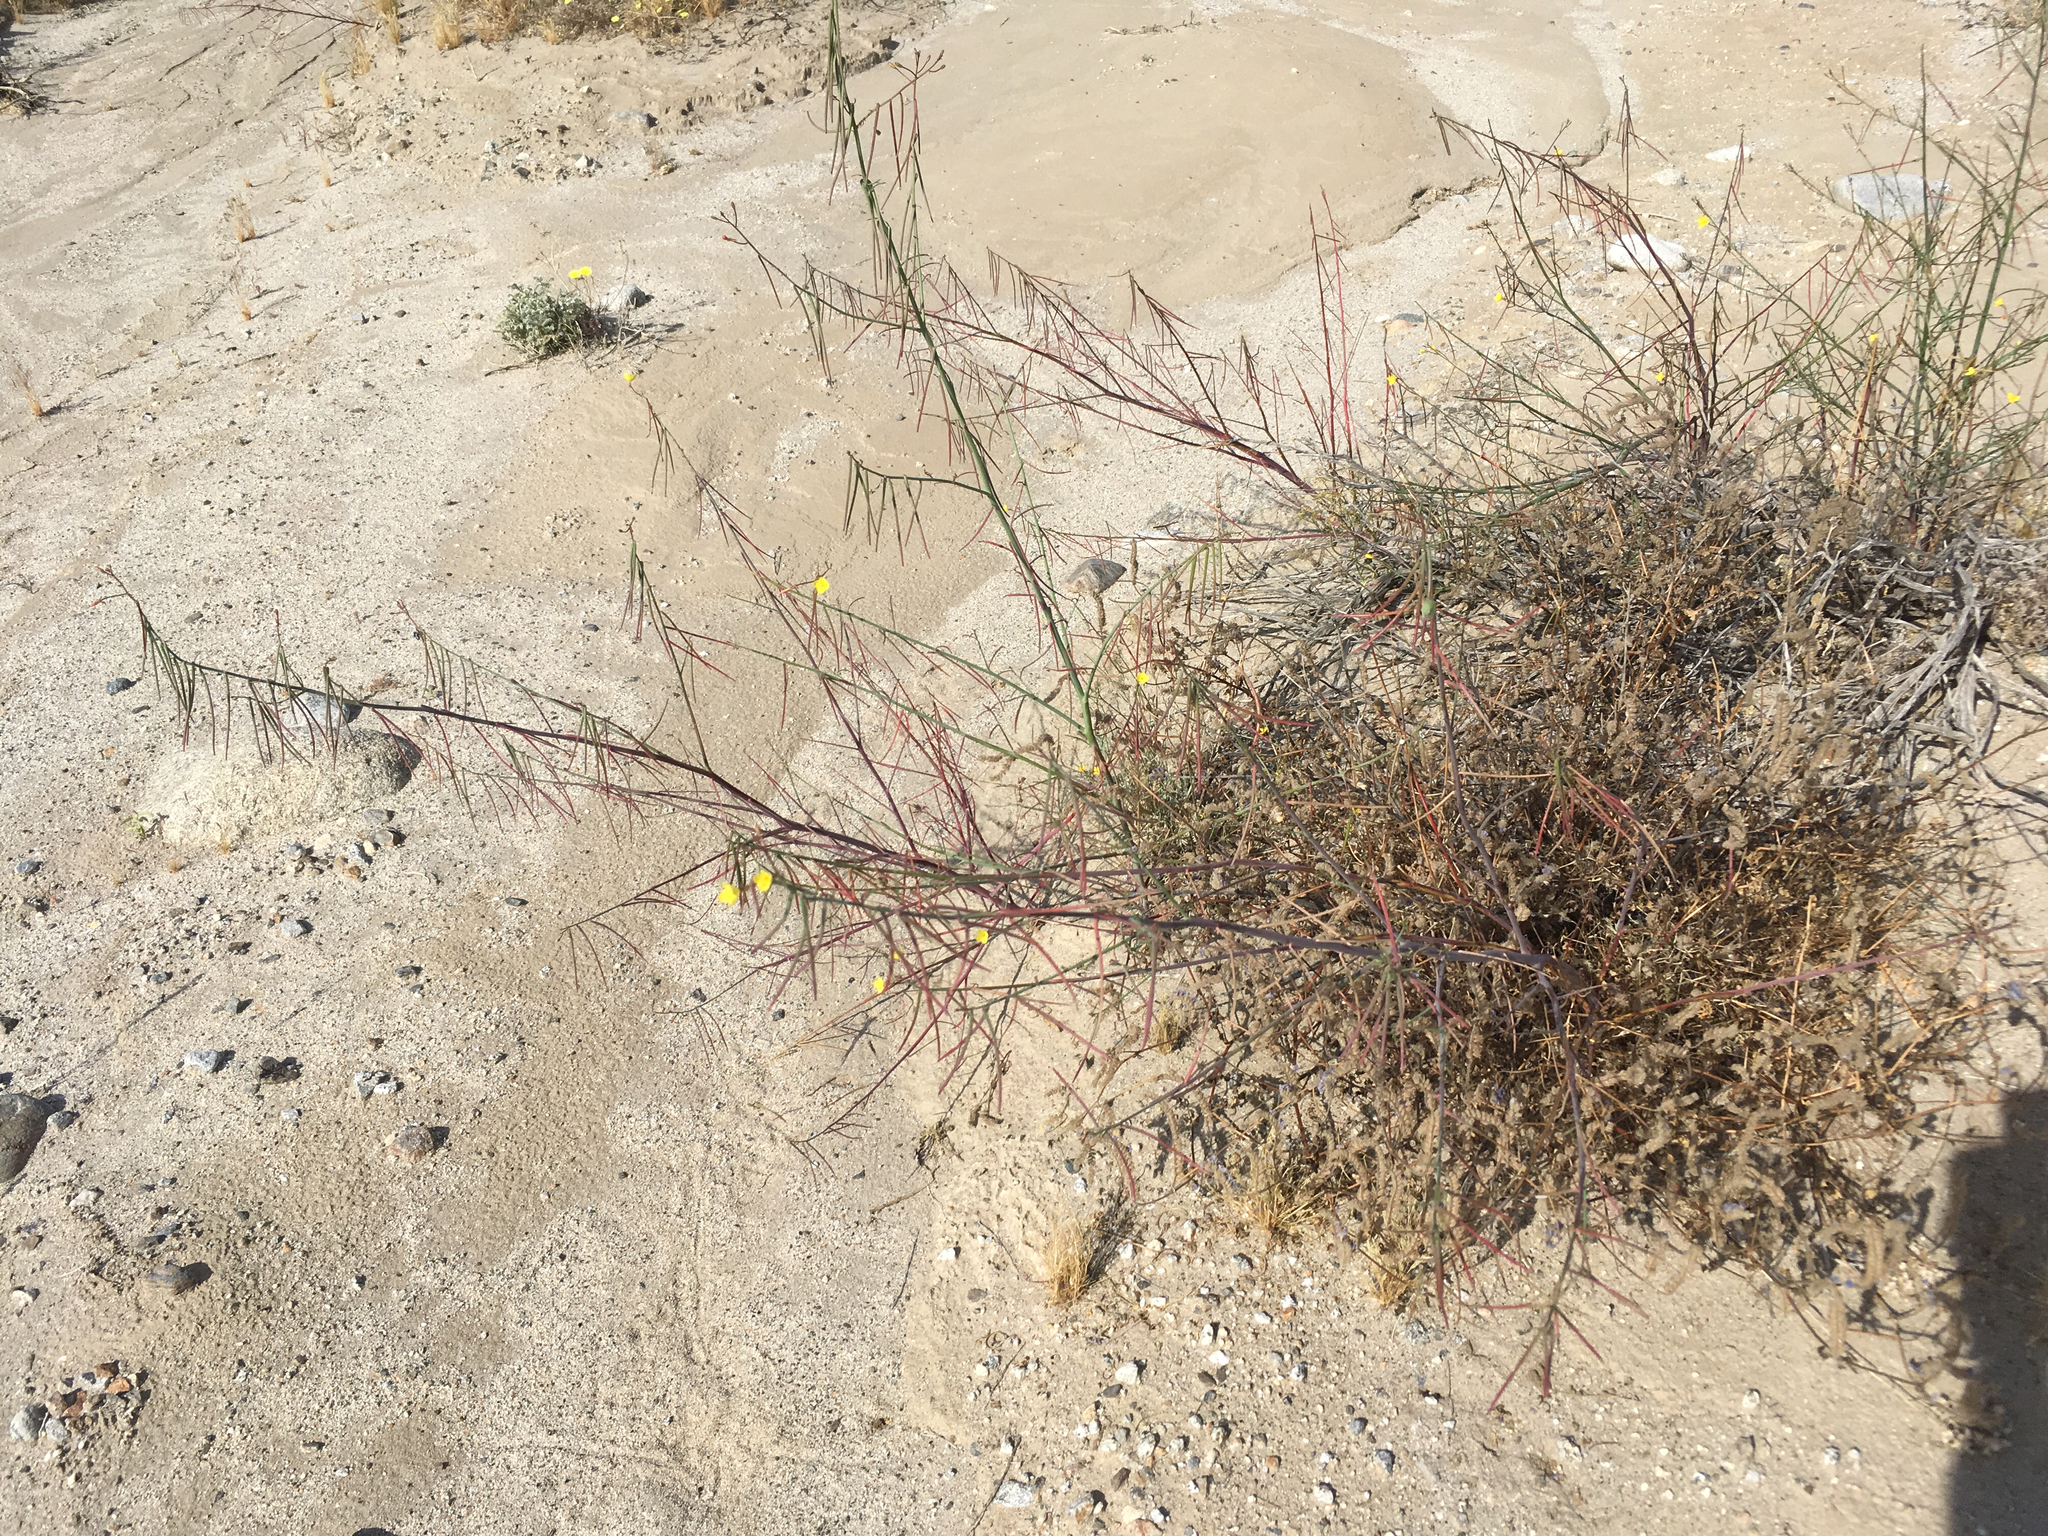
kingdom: Plantae
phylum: Tracheophyta
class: Magnoliopsida
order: Myrtales
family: Onagraceae
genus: Eulobus
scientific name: Eulobus californicus
